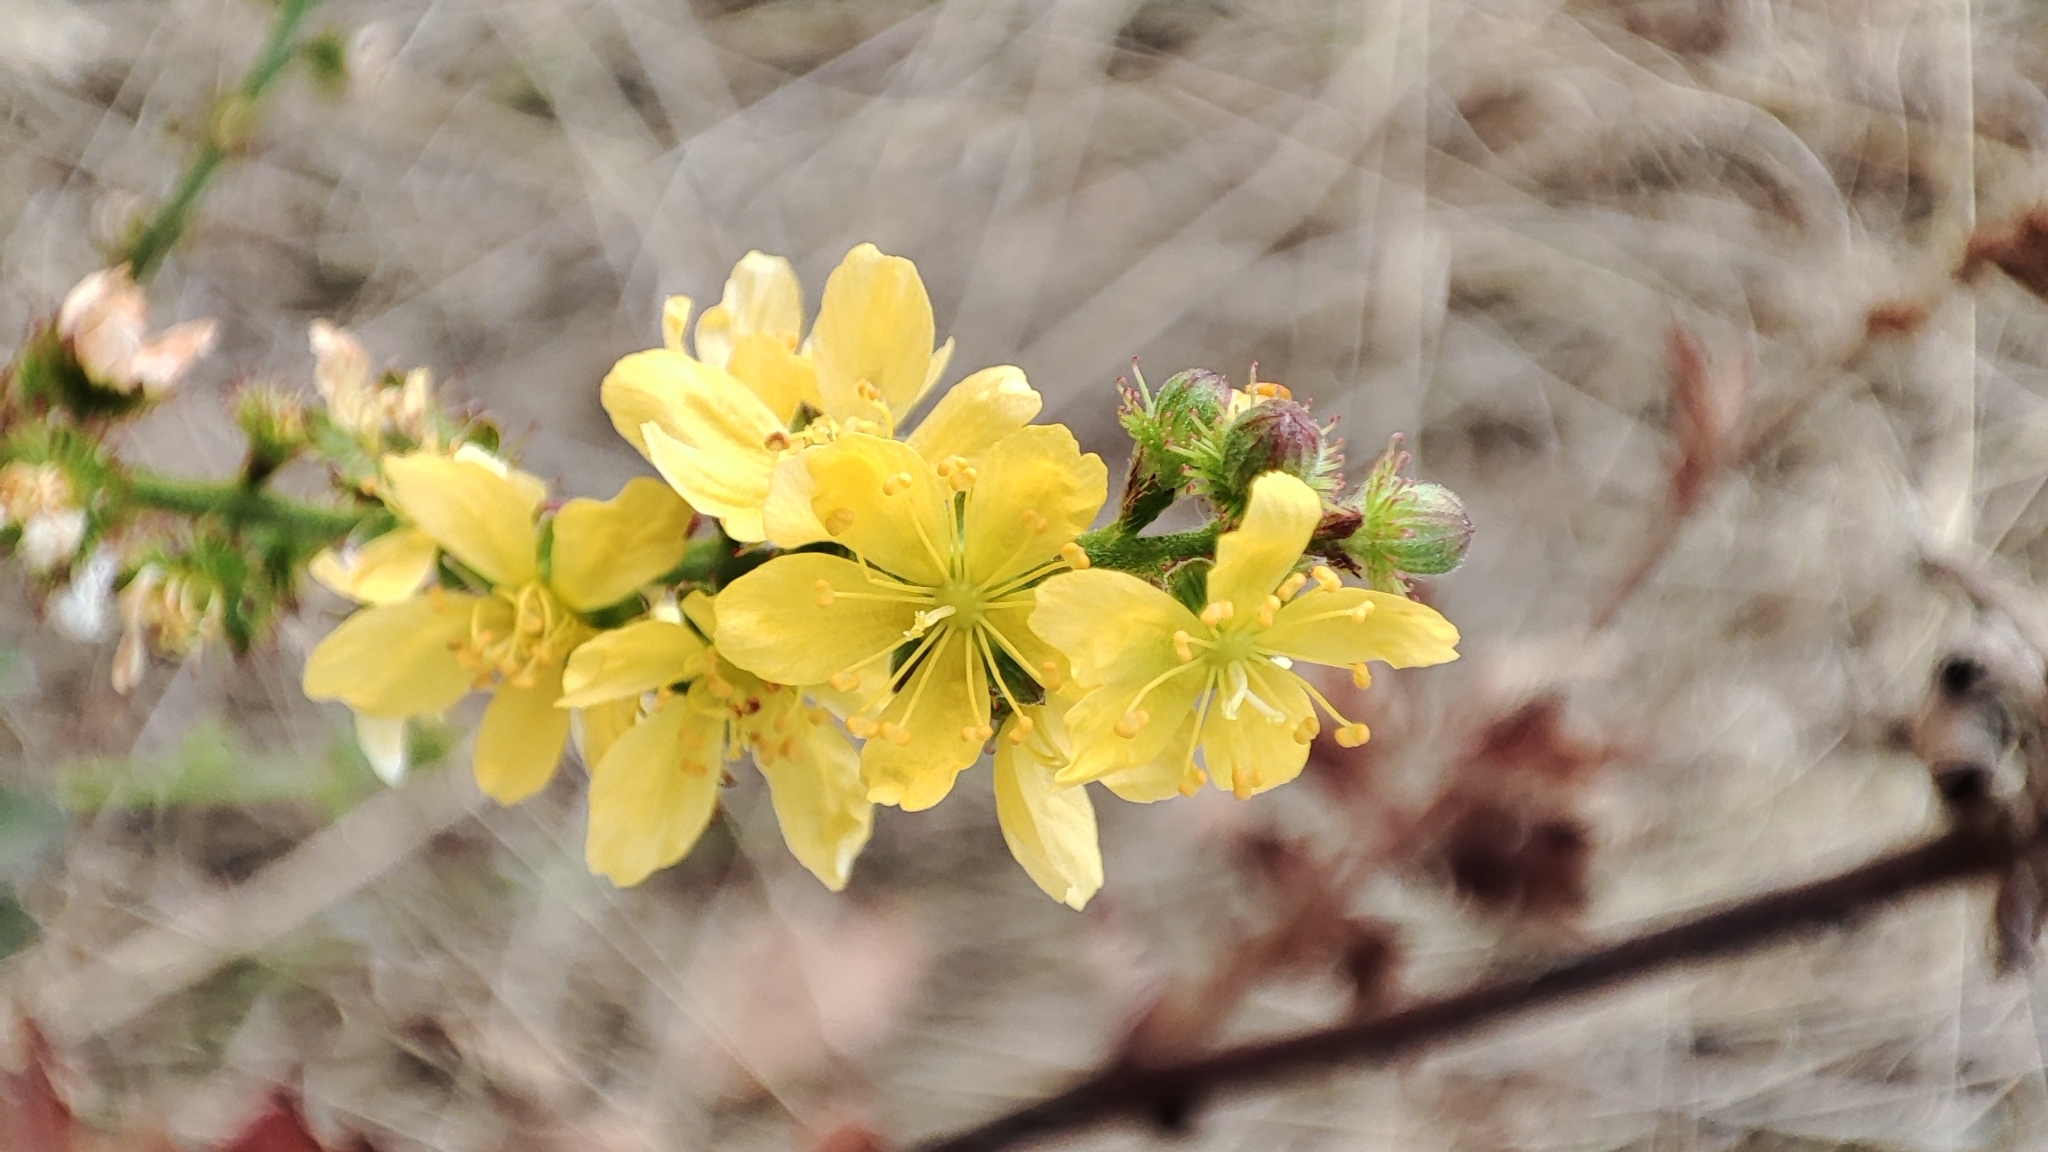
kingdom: Plantae
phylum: Tracheophyta
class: Magnoliopsida
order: Rosales
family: Rosaceae
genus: Agrimonia
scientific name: Agrimonia eupatoria
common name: Agrimony
